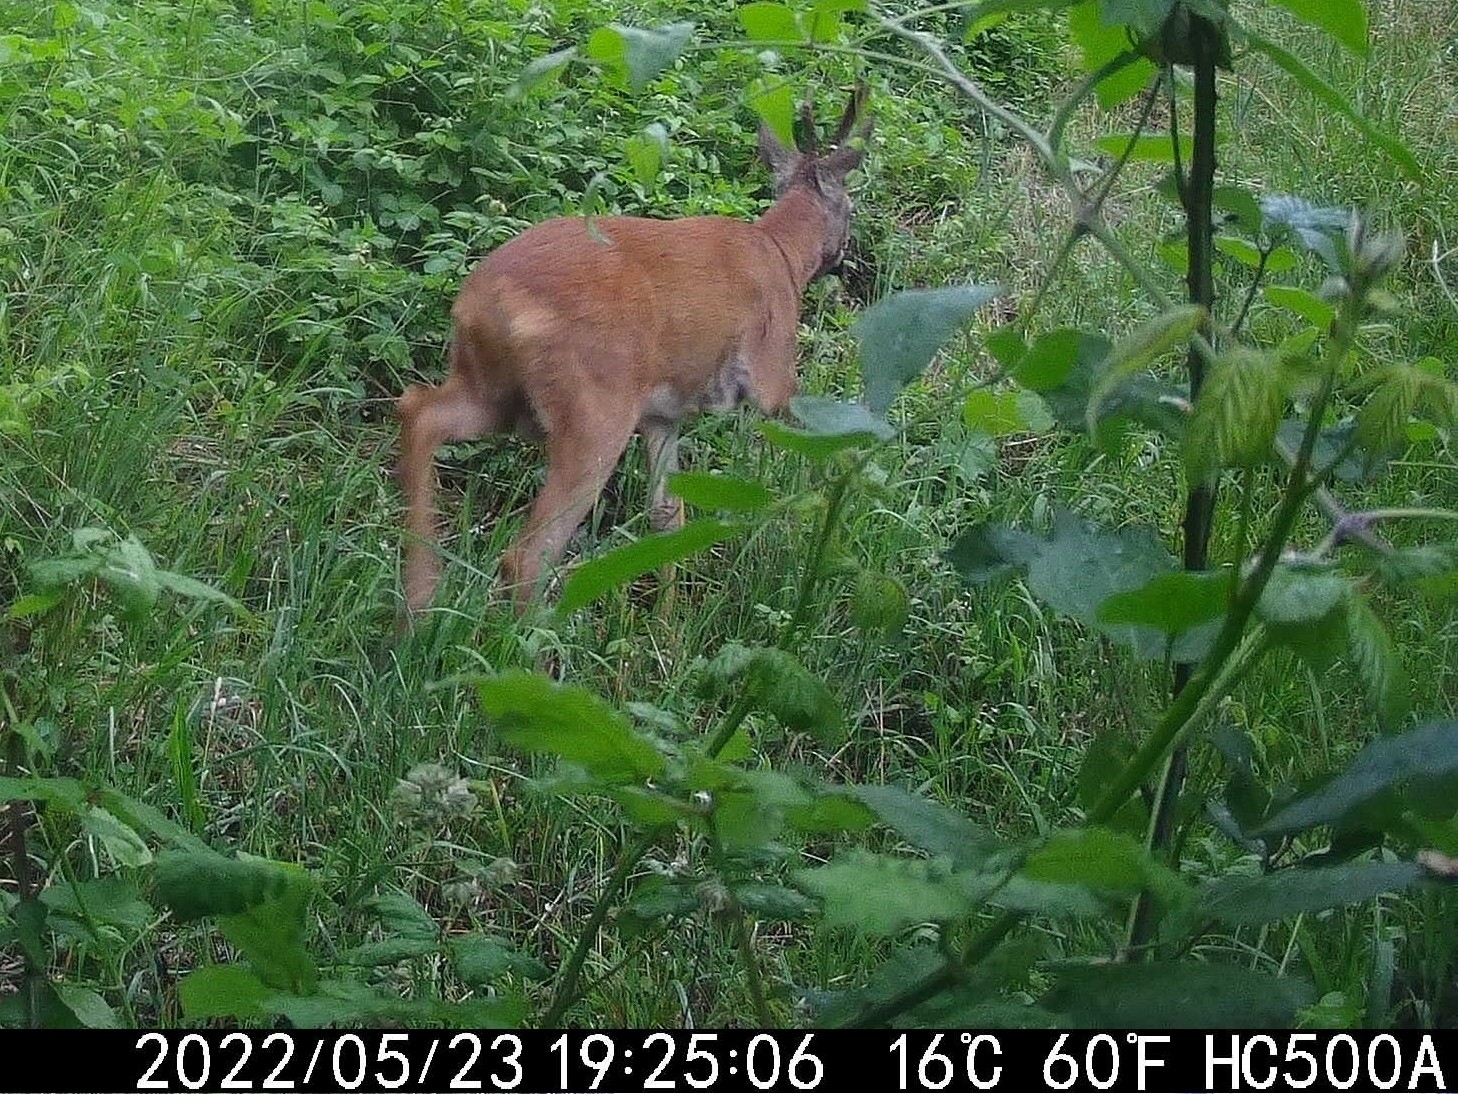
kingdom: Animalia
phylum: Chordata
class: Mammalia
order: Artiodactyla
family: Cervidae
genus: Capreolus
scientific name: Capreolus capreolus
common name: Western roe deer
